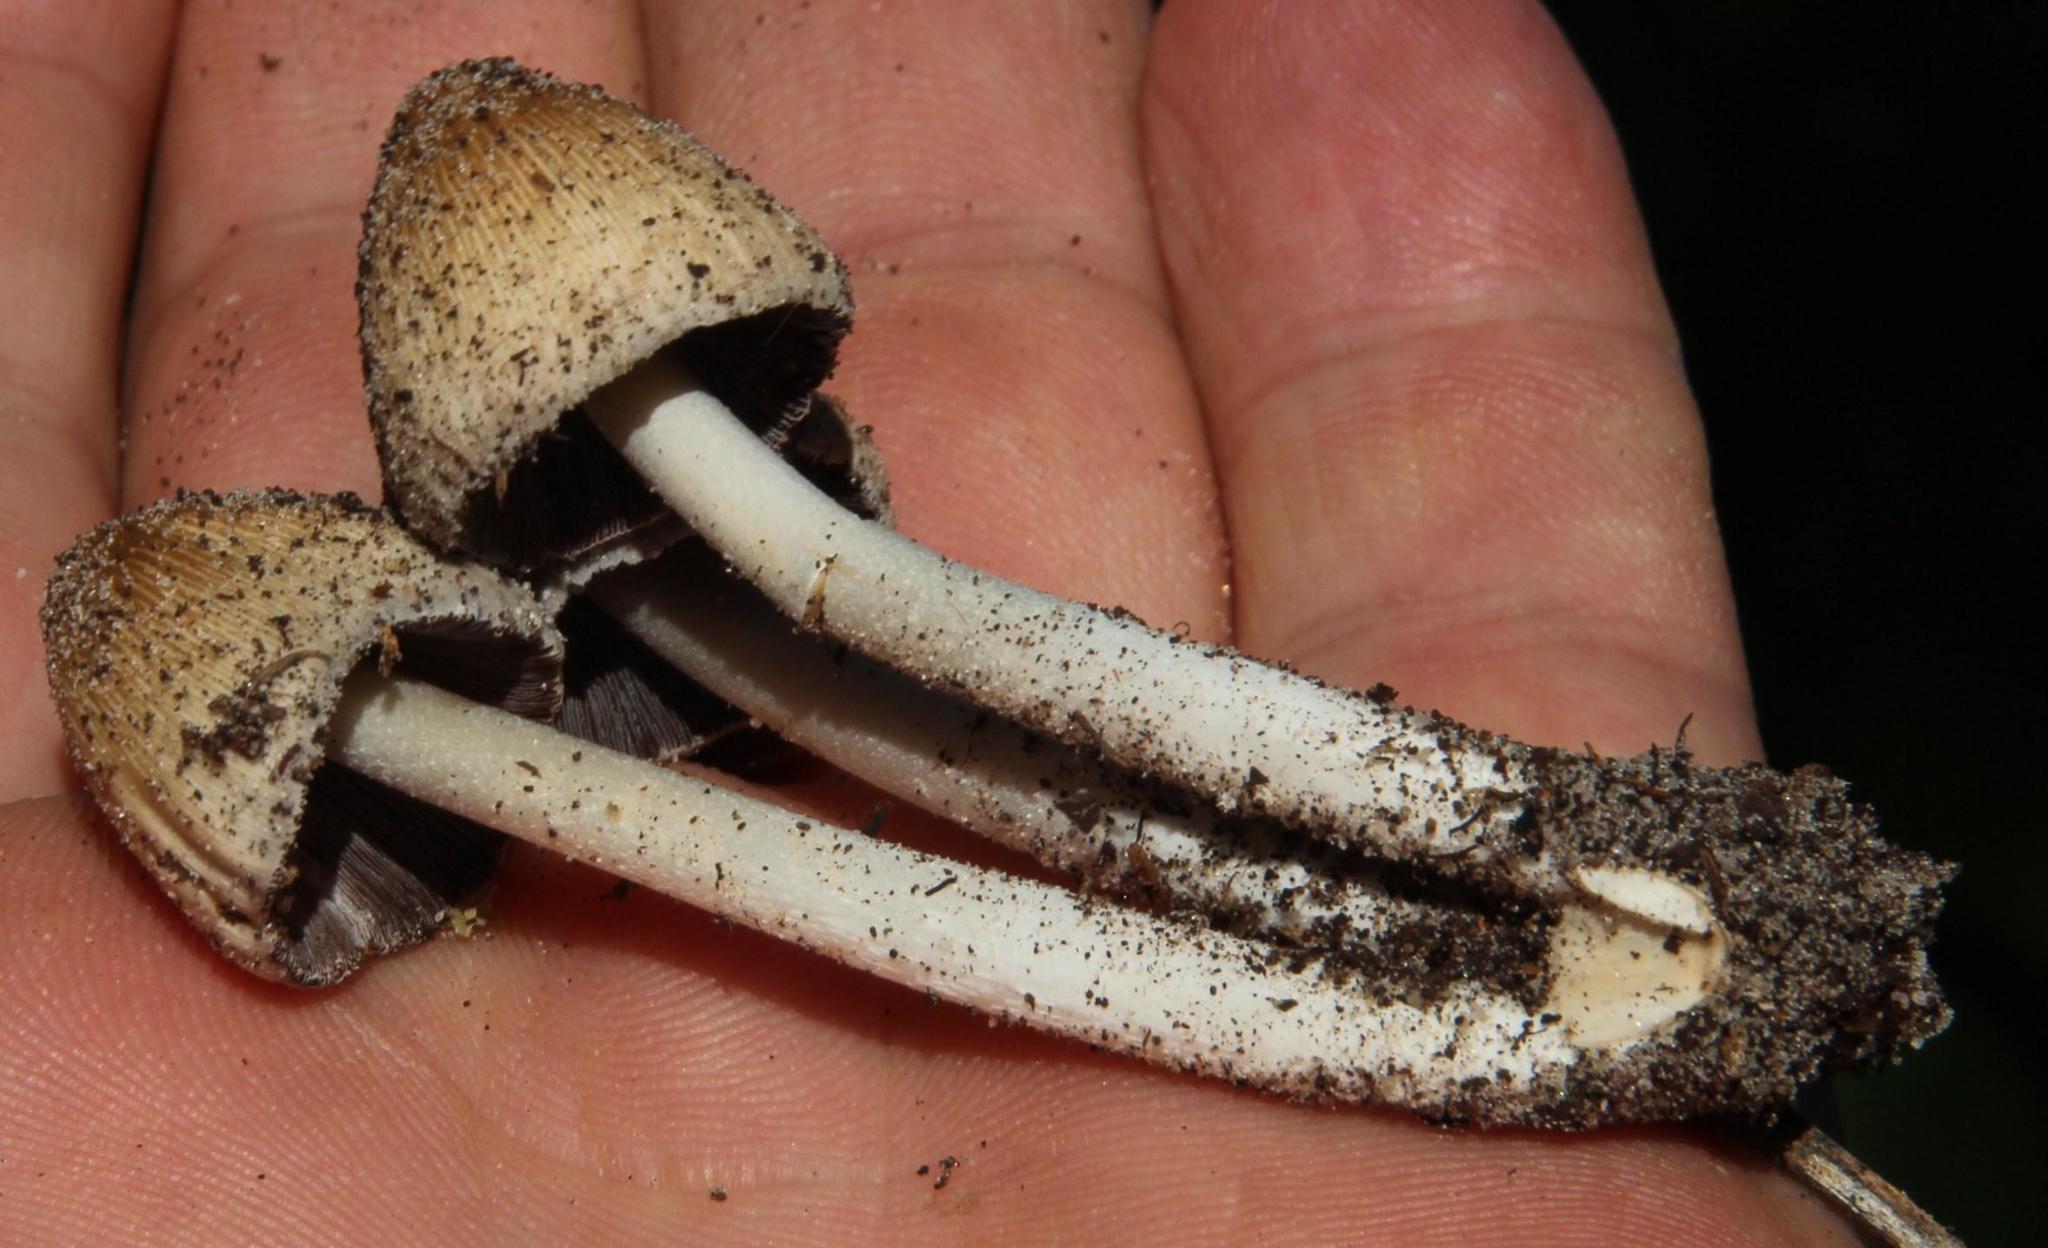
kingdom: Fungi
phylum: Basidiomycota
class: Agaricomycetes
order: Agaricales
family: Psathyrellaceae
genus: Coprinellus
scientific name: Coprinellus micaceus
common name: Glistening ink-cap
